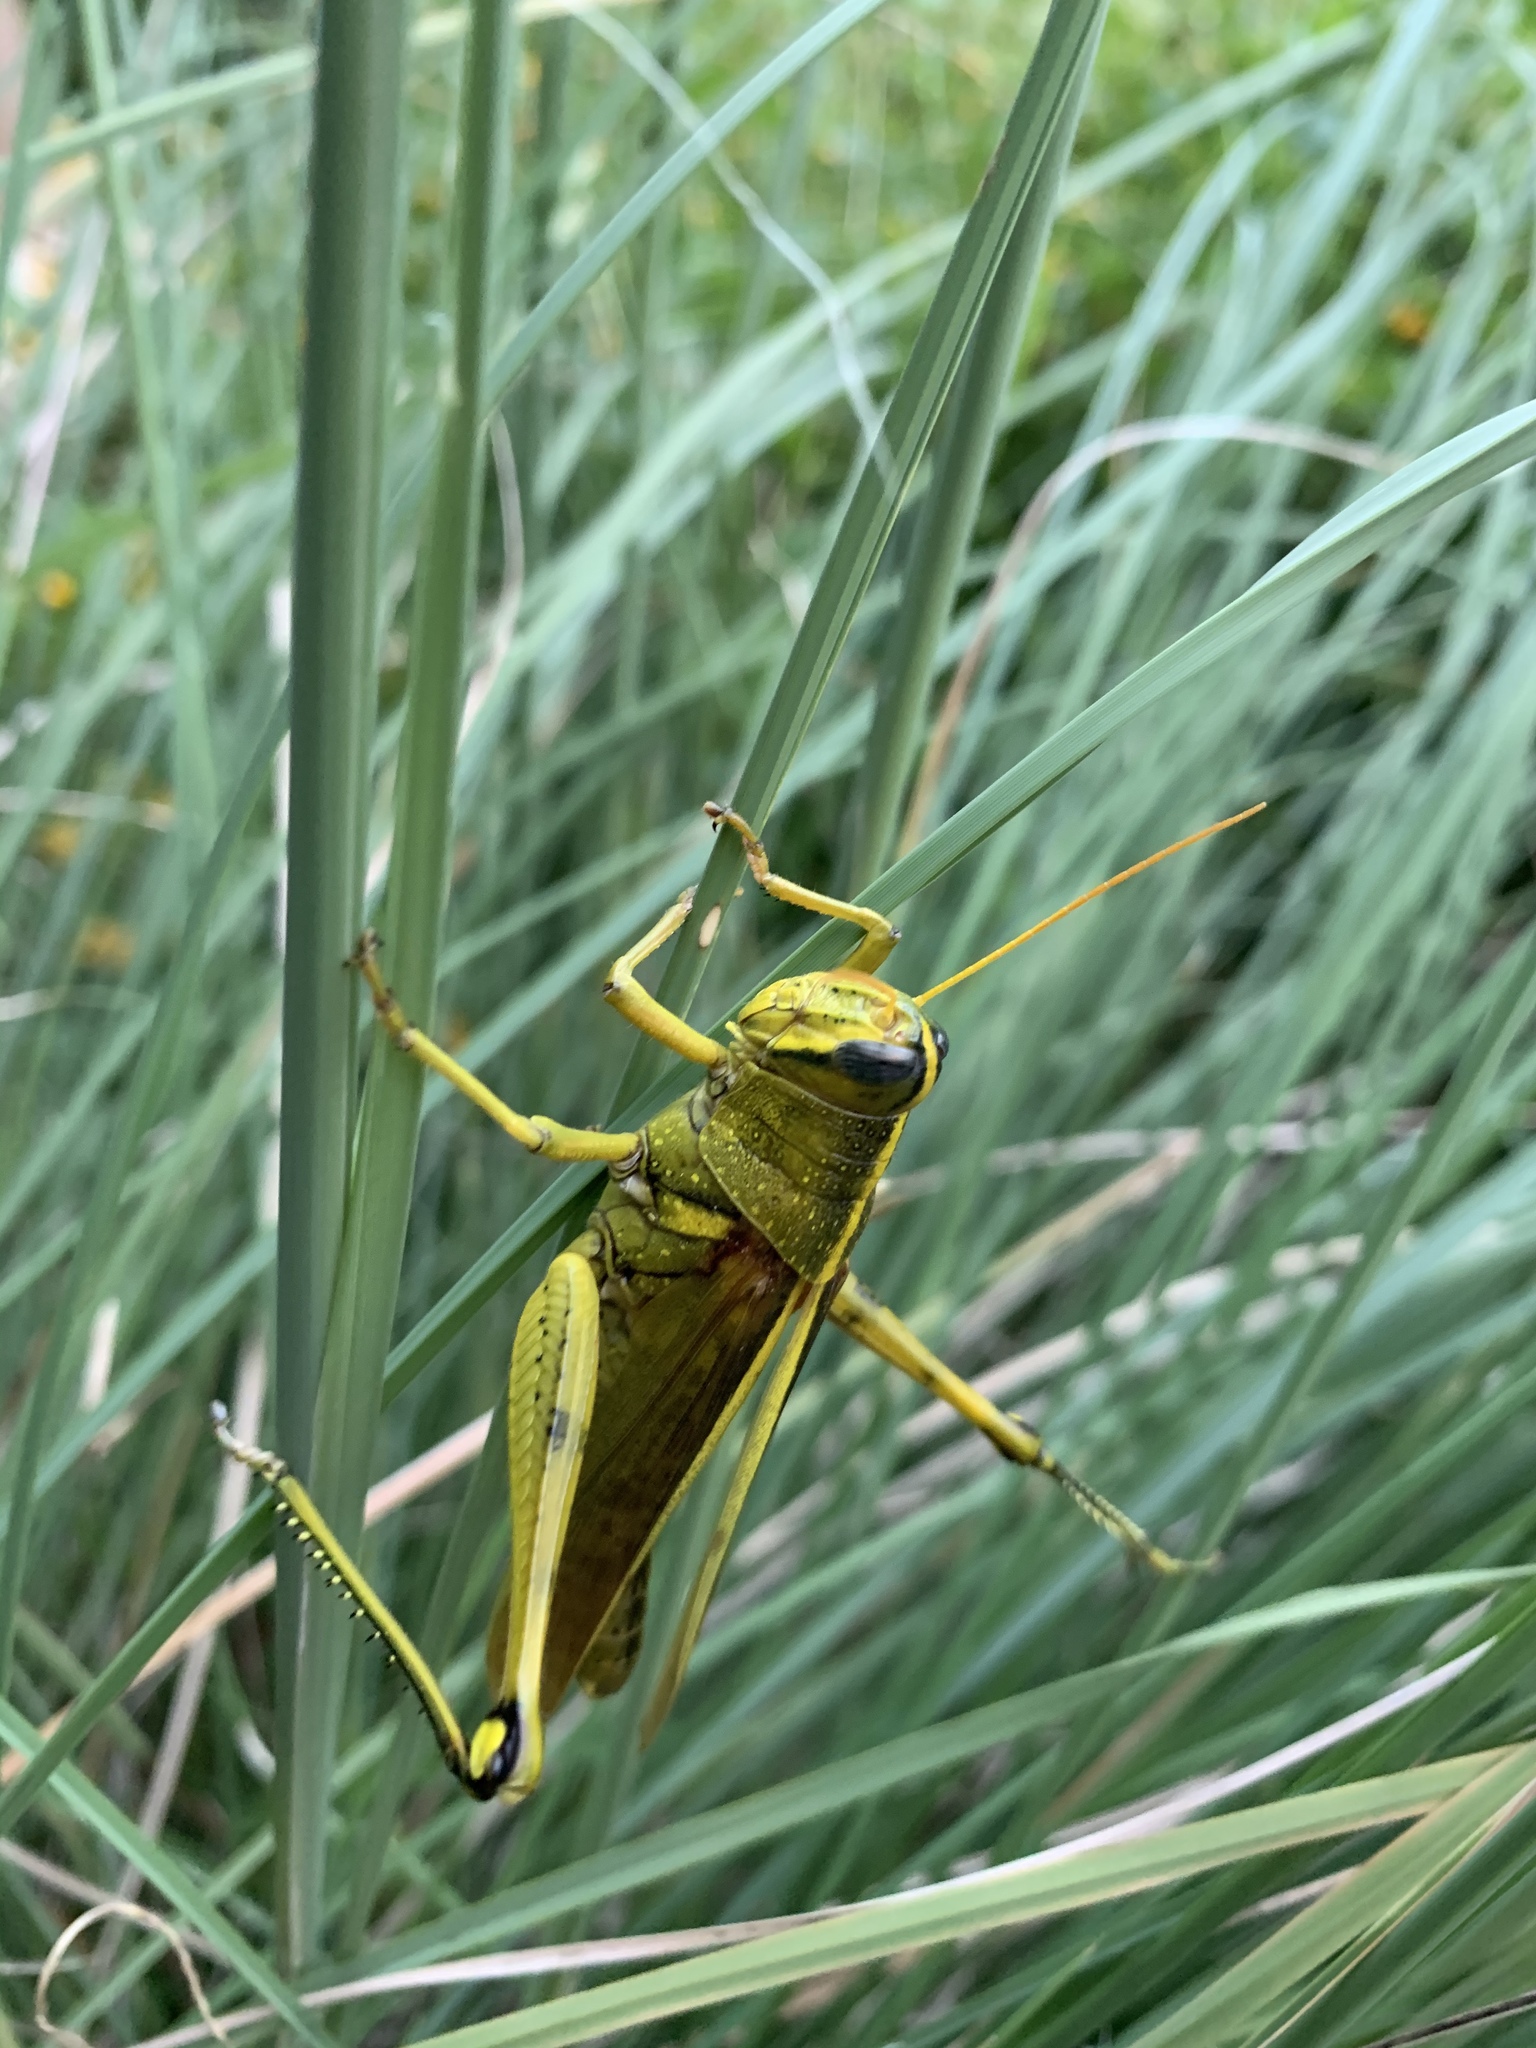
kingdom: Animalia
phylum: Arthropoda
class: Insecta
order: Orthoptera
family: Acrididae
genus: Schistocerca
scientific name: Schistocerca lineata
